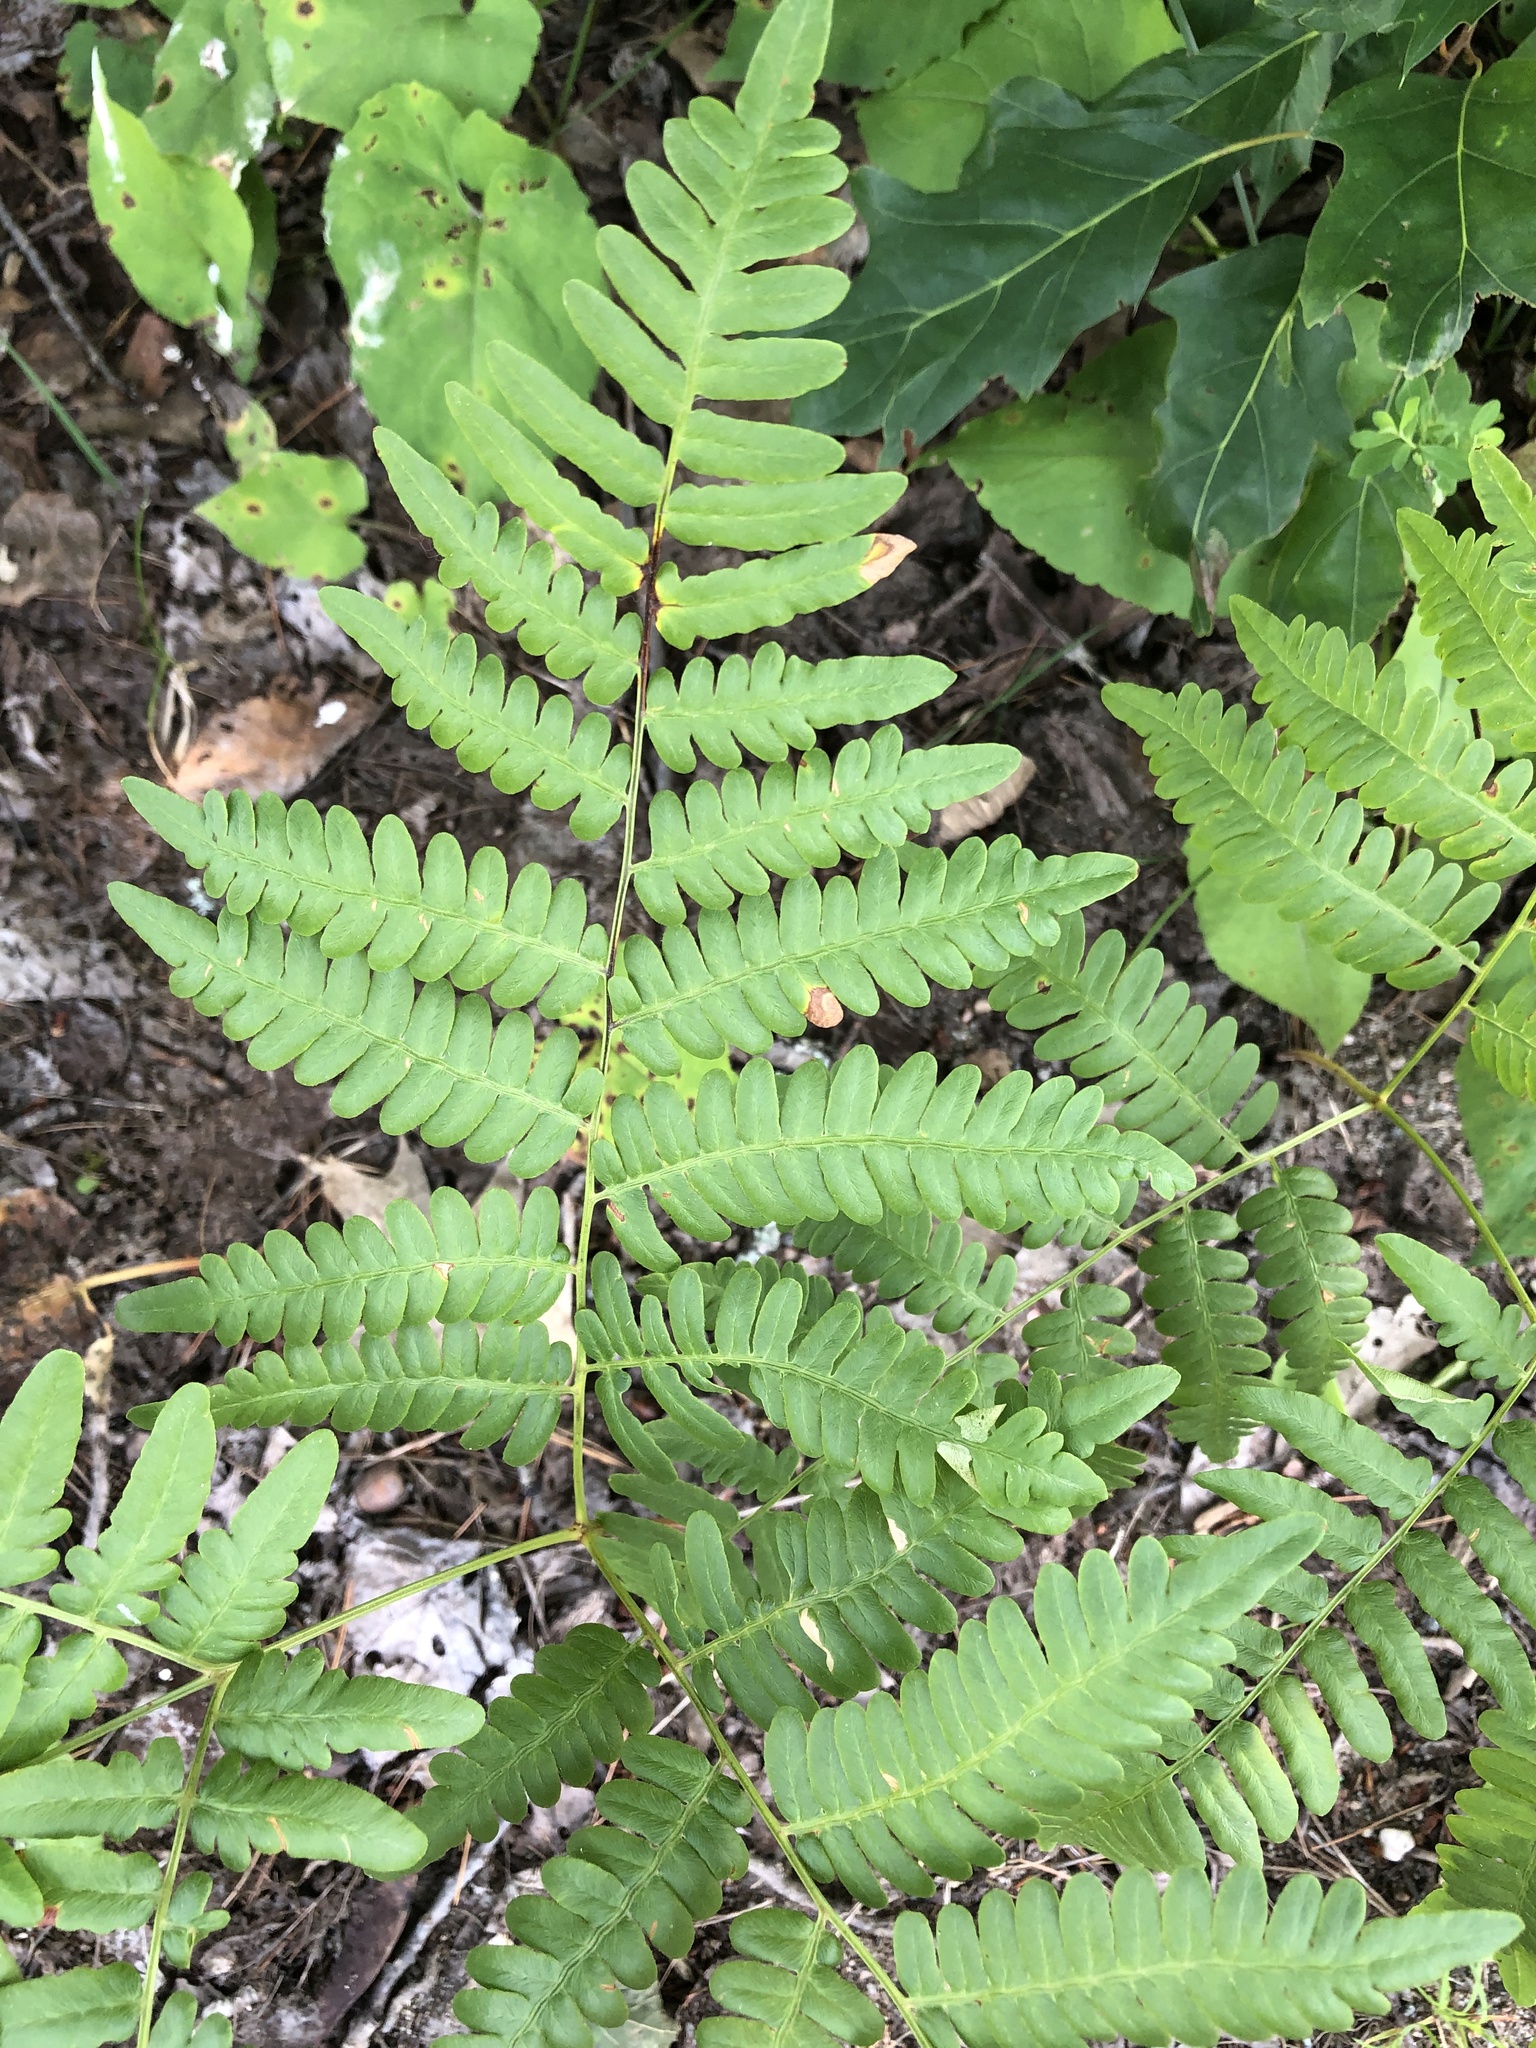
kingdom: Plantae
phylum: Tracheophyta
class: Polypodiopsida
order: Polypodiales
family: Dennstaedtiaceae
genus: Pteridium
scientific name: Pteridium aquilinum
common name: Bracken
